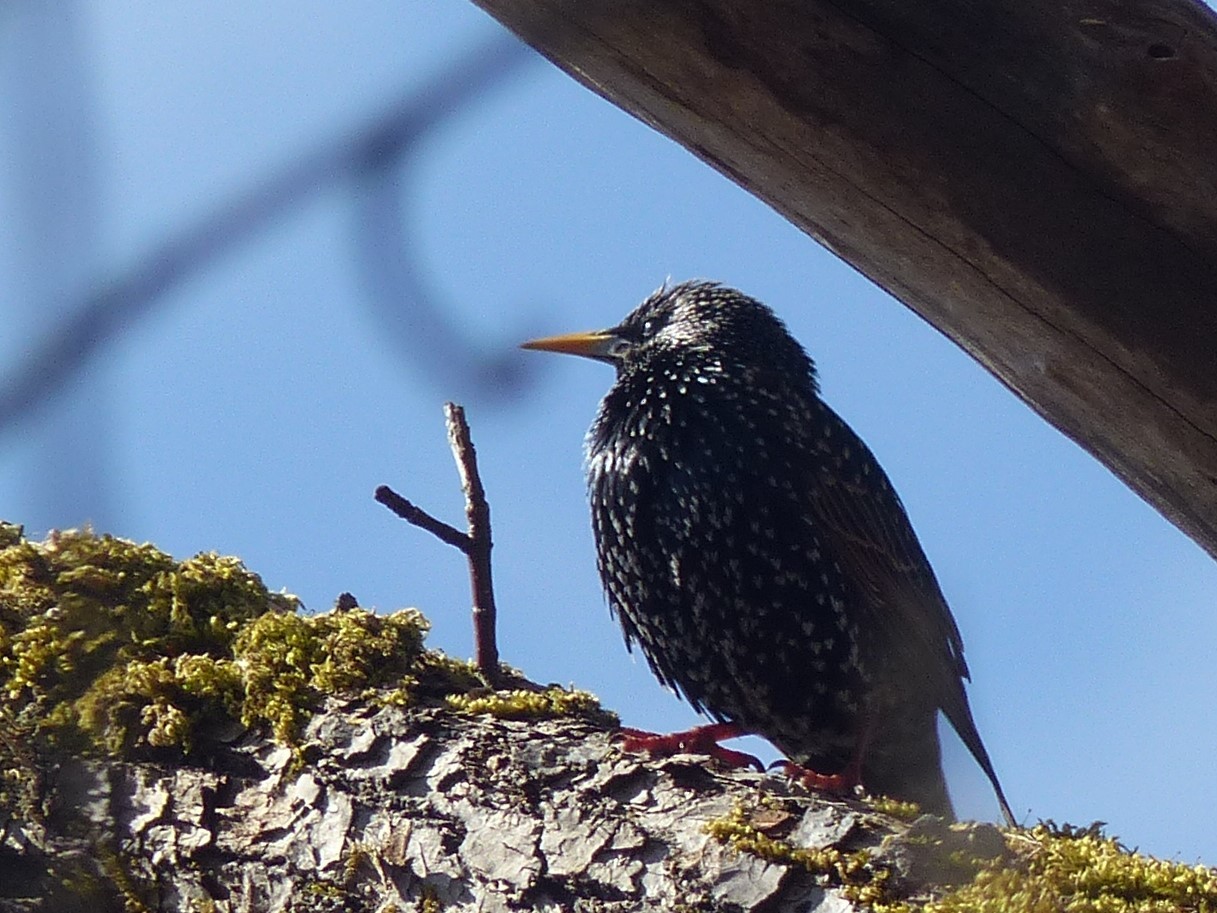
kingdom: Animalia
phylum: Chordata
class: Aves
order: Passeriformes
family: Sturnidae
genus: Sturnus
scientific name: Sturnus vulgaris
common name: Common starling
